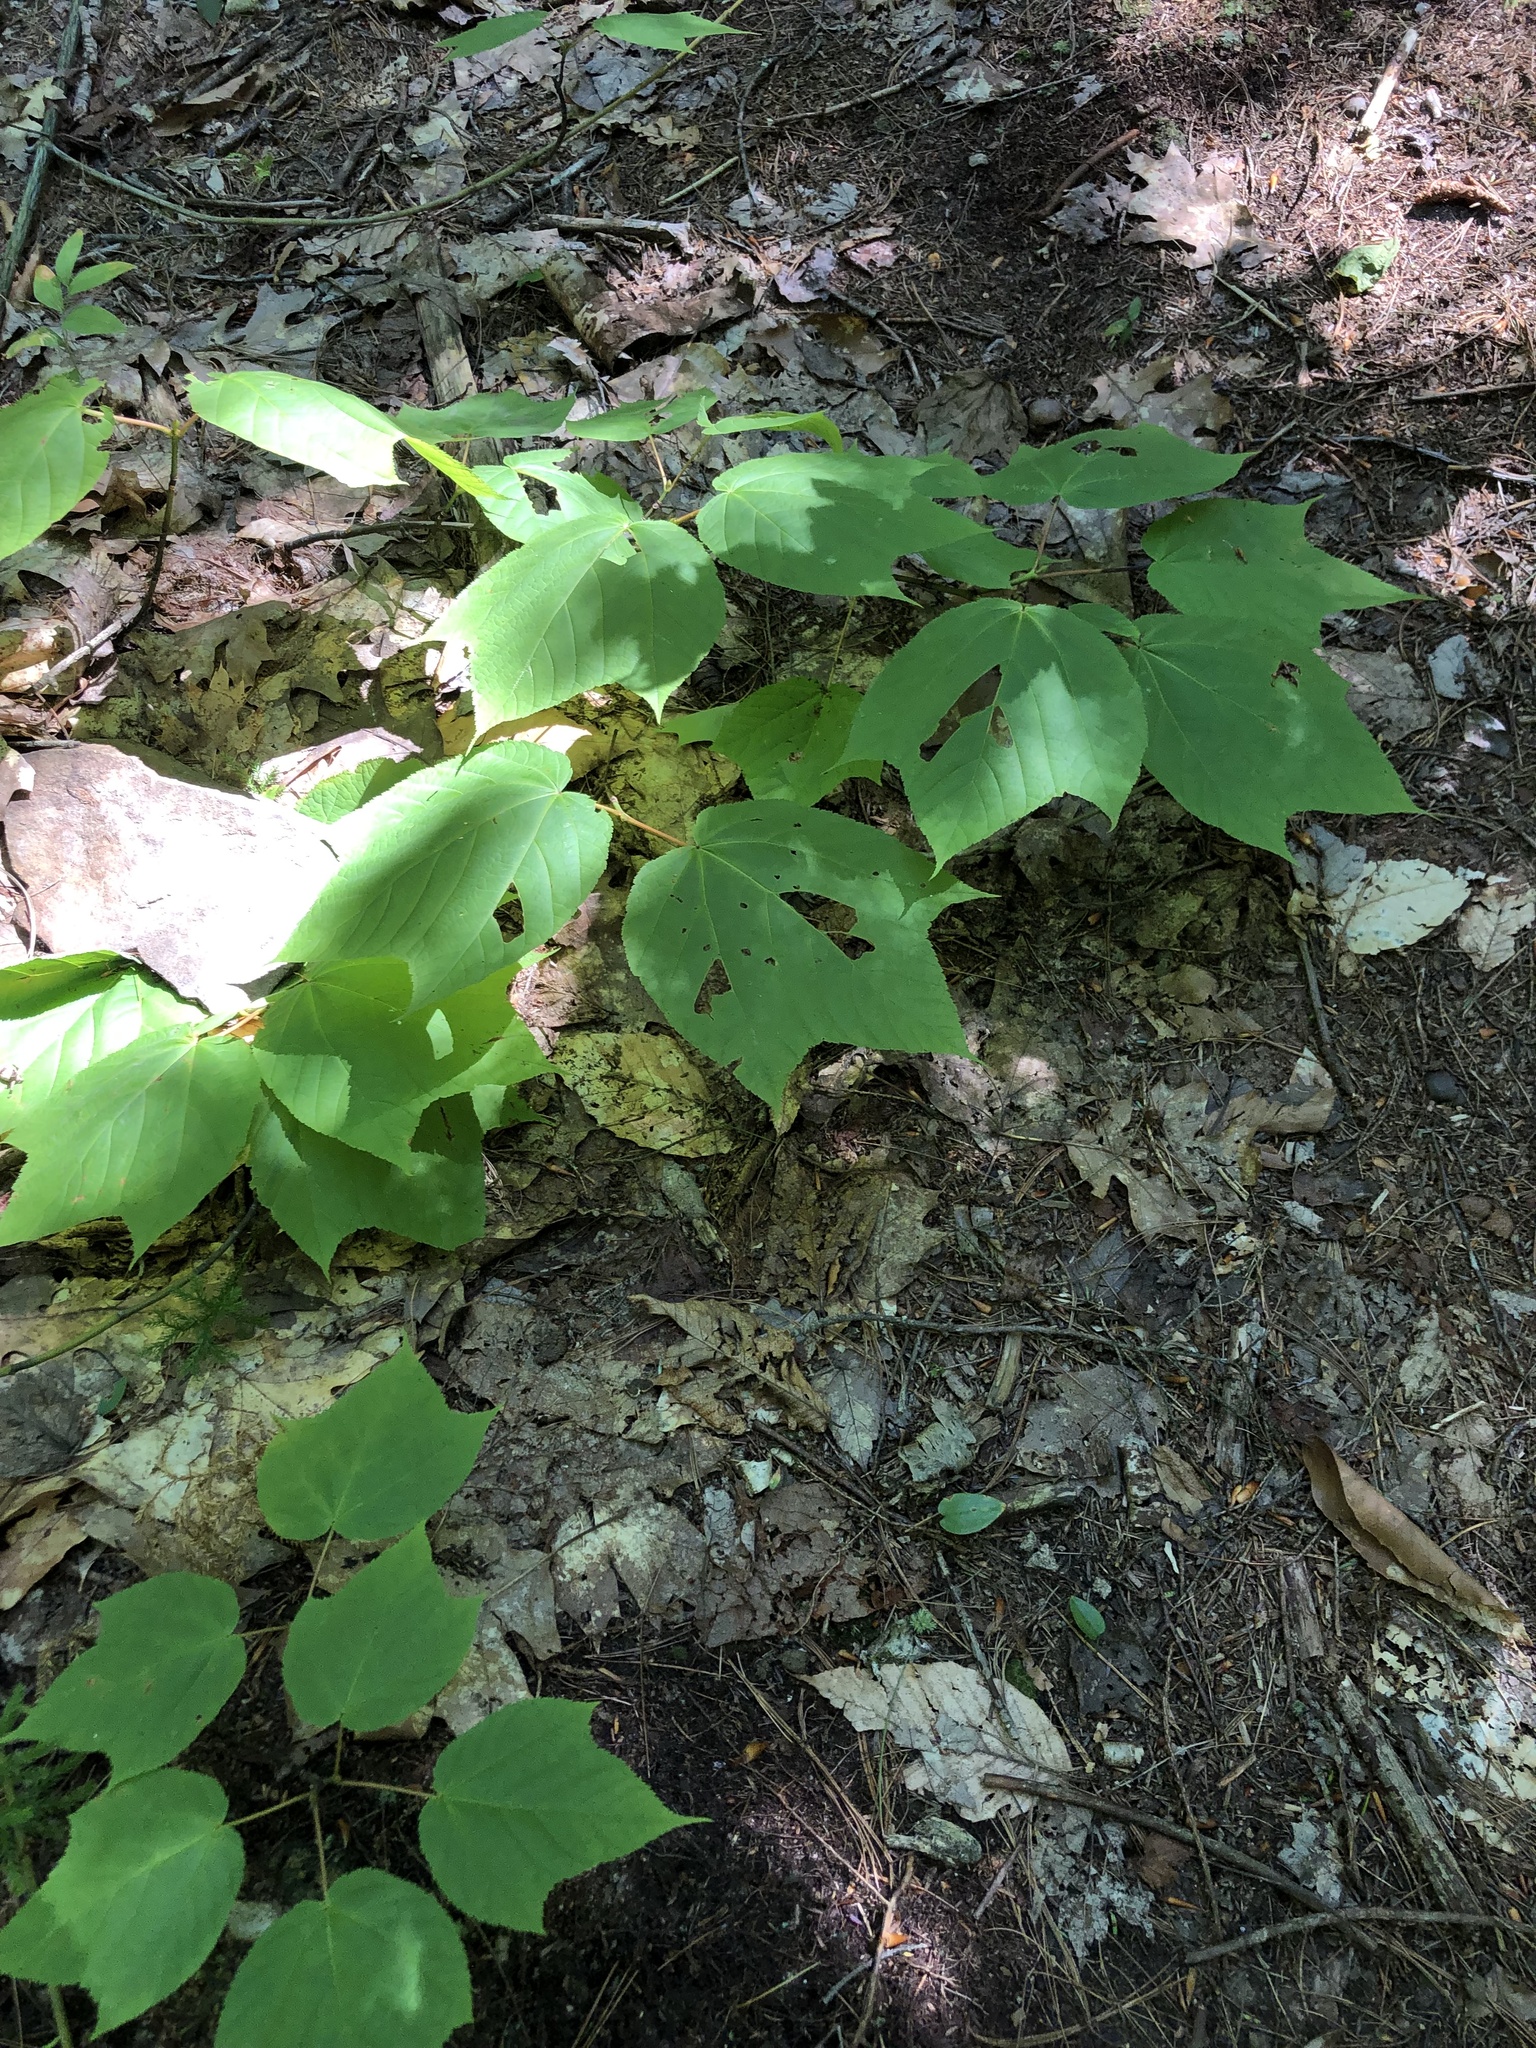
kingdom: Plantae
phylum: Tracheophyta
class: Magnoliopsida
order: Sapindales
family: Sapindaceae
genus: Acer
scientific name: Acer pensylvanicum
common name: Moosewood
